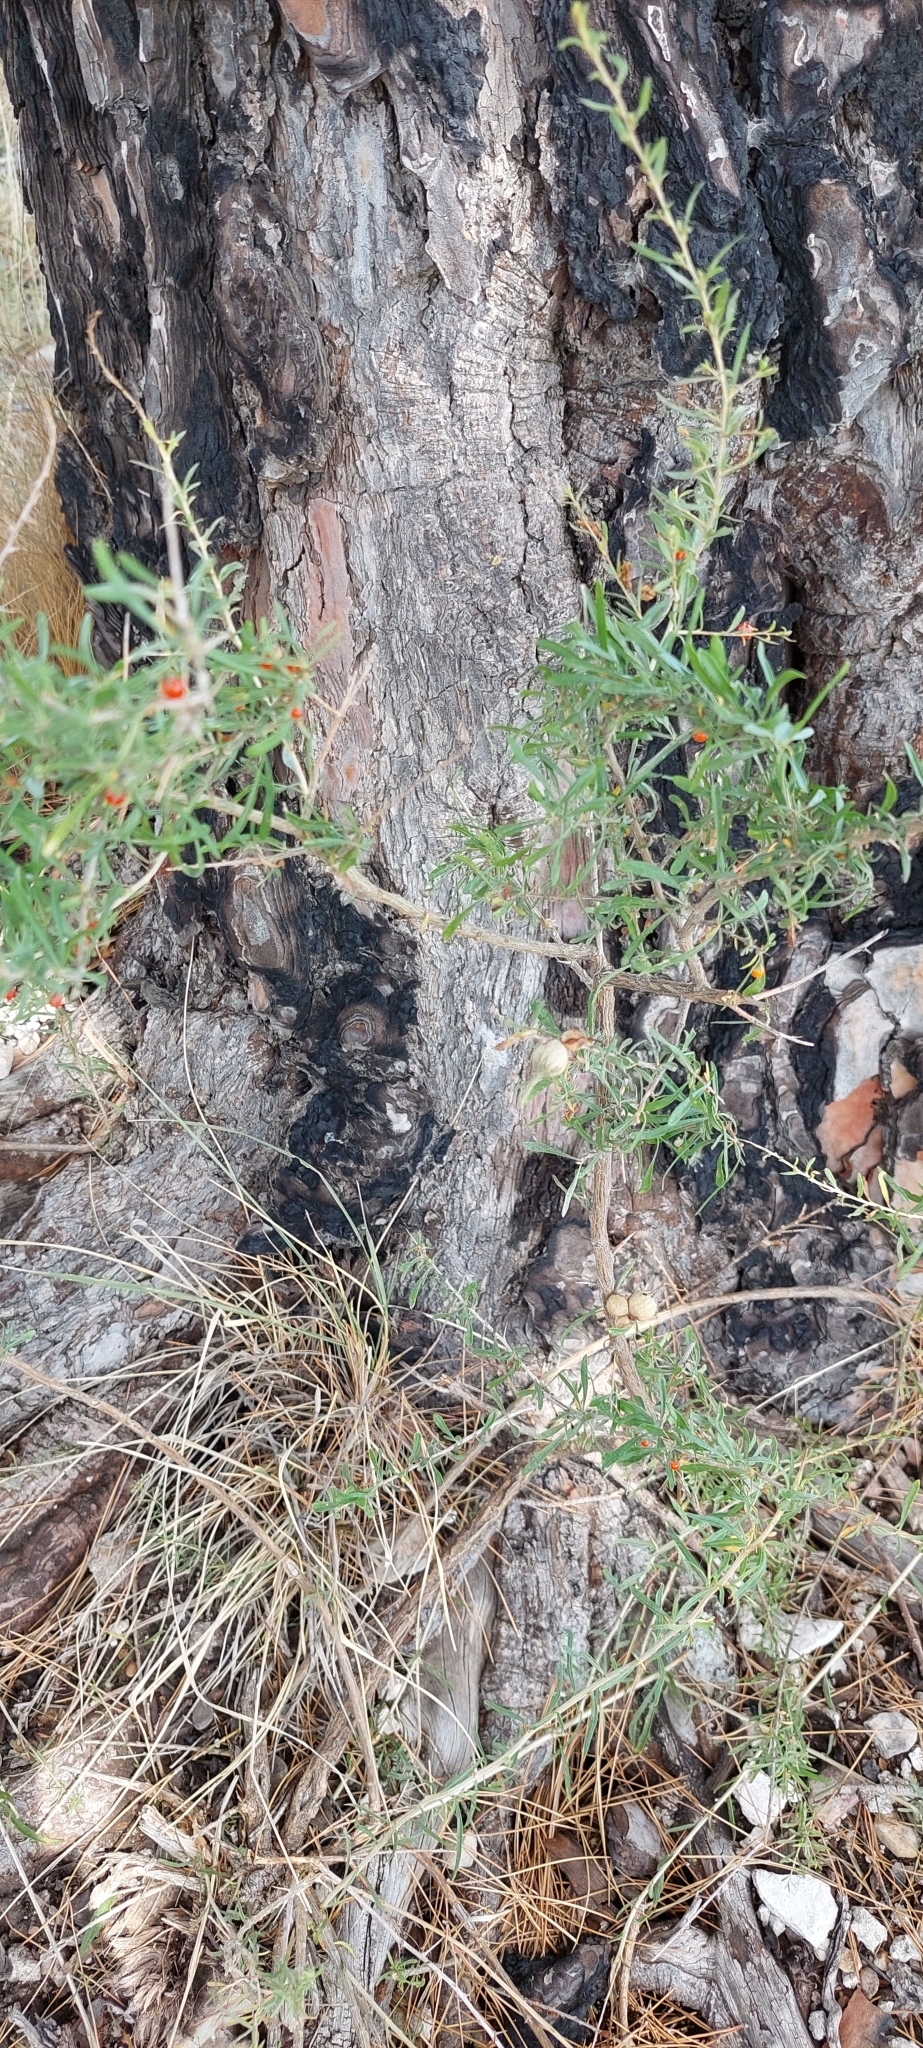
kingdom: Plantae
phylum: Tracheophyta
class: Magnoliopsida
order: Solanales
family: Solanaceae
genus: Lycium
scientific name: Lycium chilense
